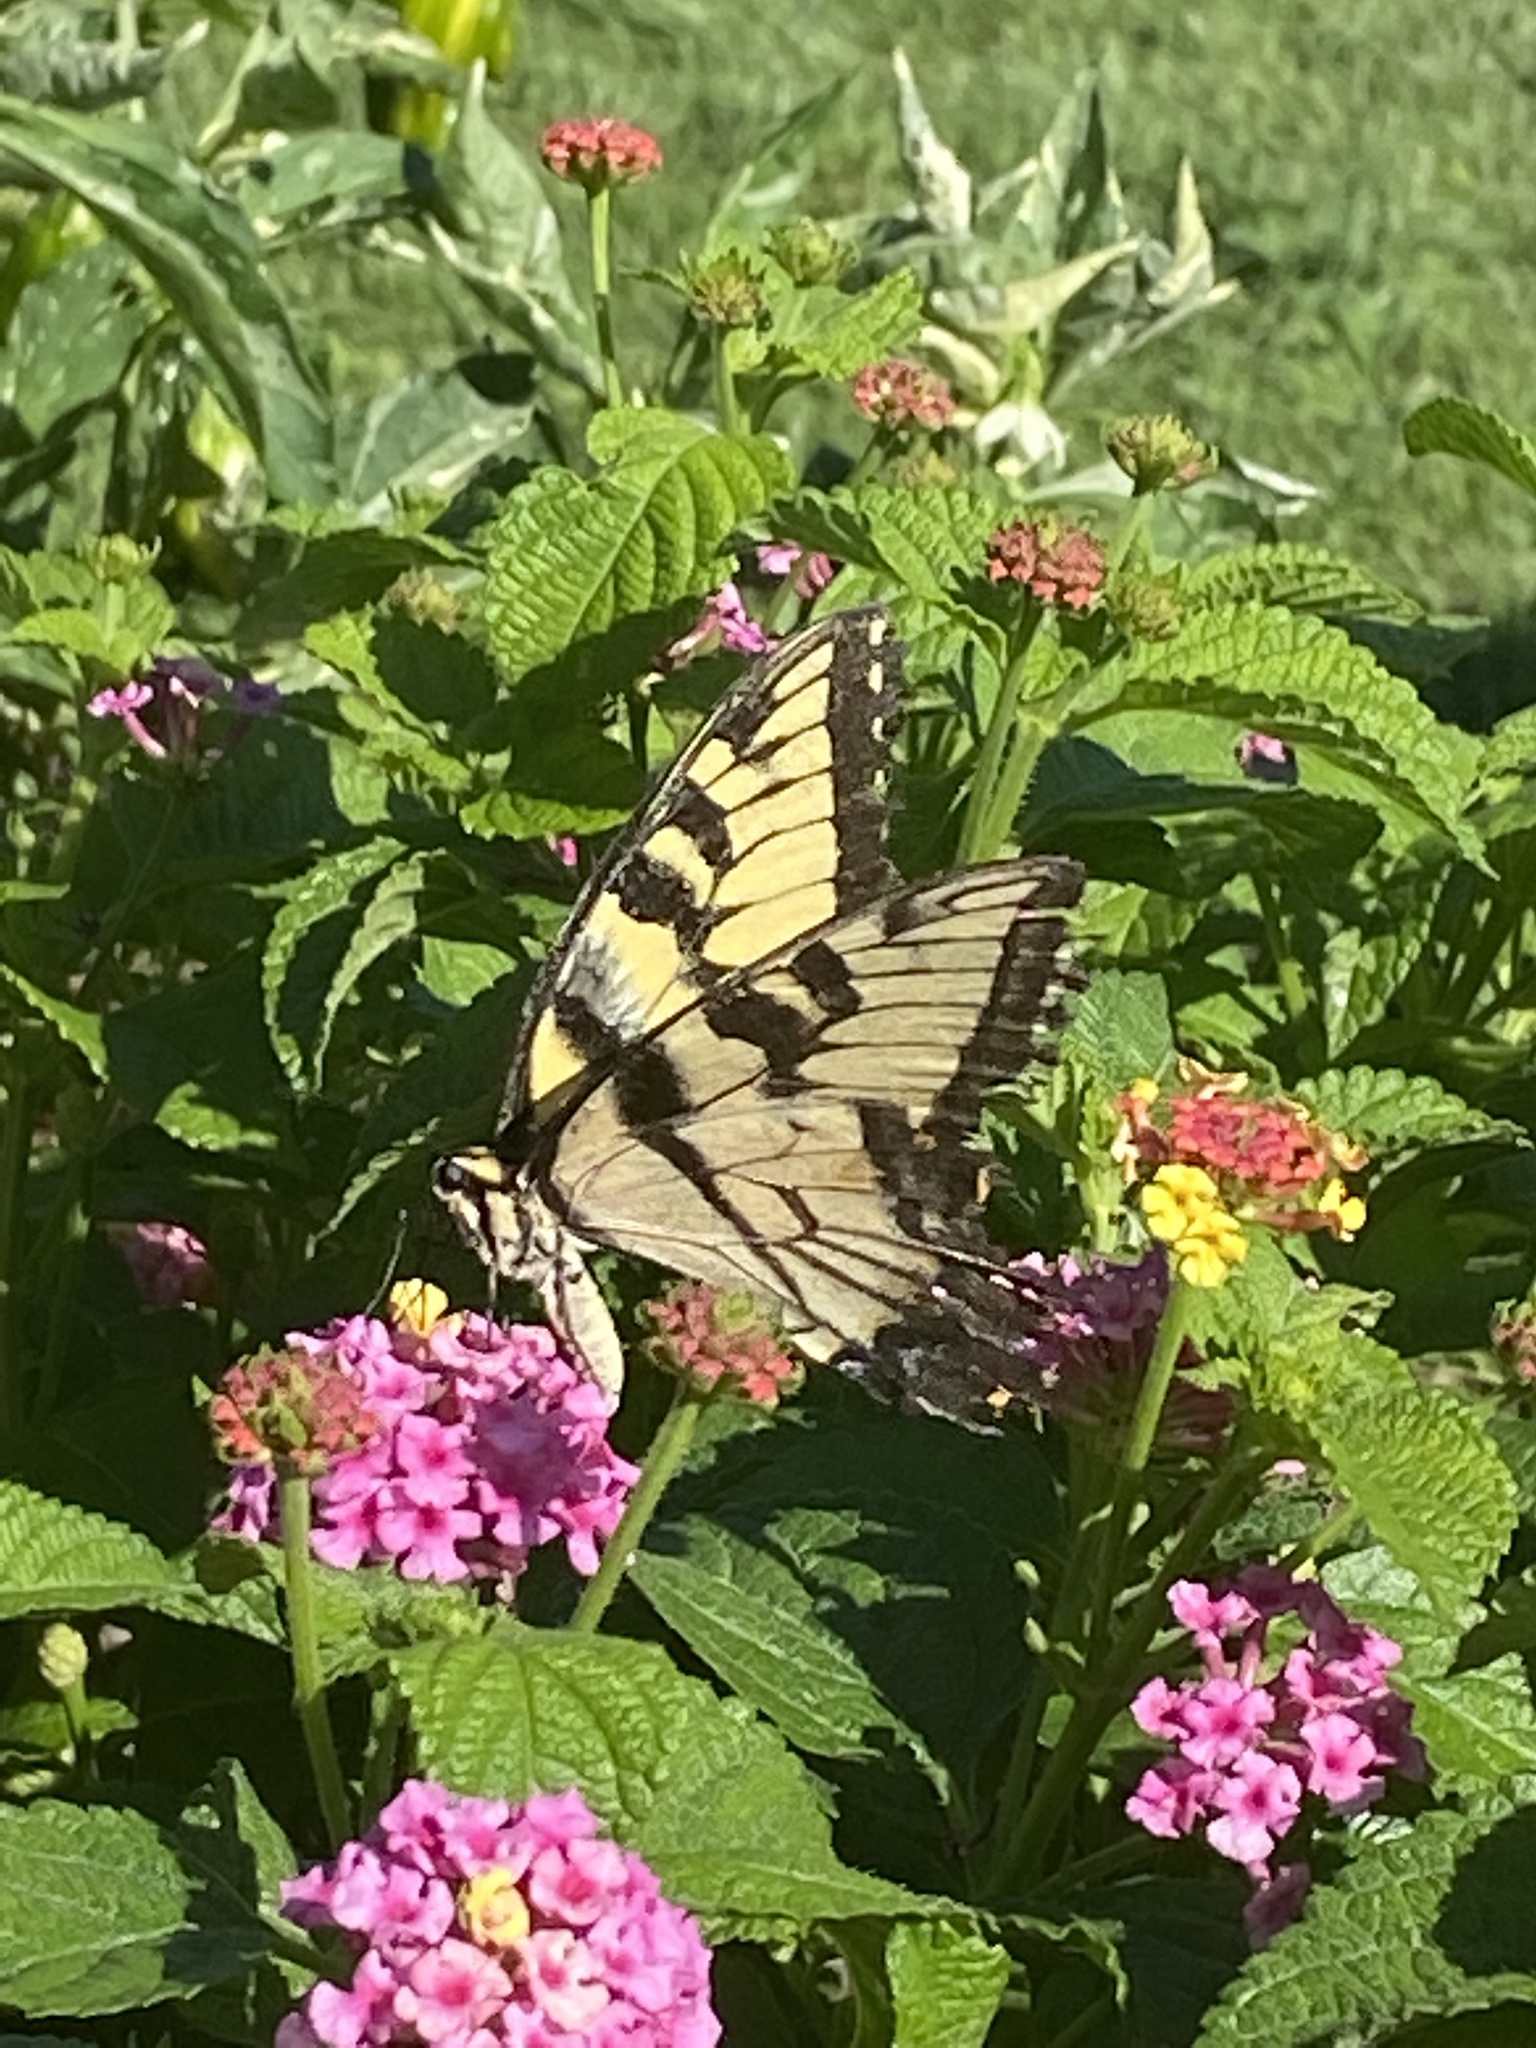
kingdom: Animalia
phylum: Arthropoda
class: Insecta
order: Lepidoptera
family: Papilionidae
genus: Papilio
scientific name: Papilio glaucus
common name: Tiger swallowtail
